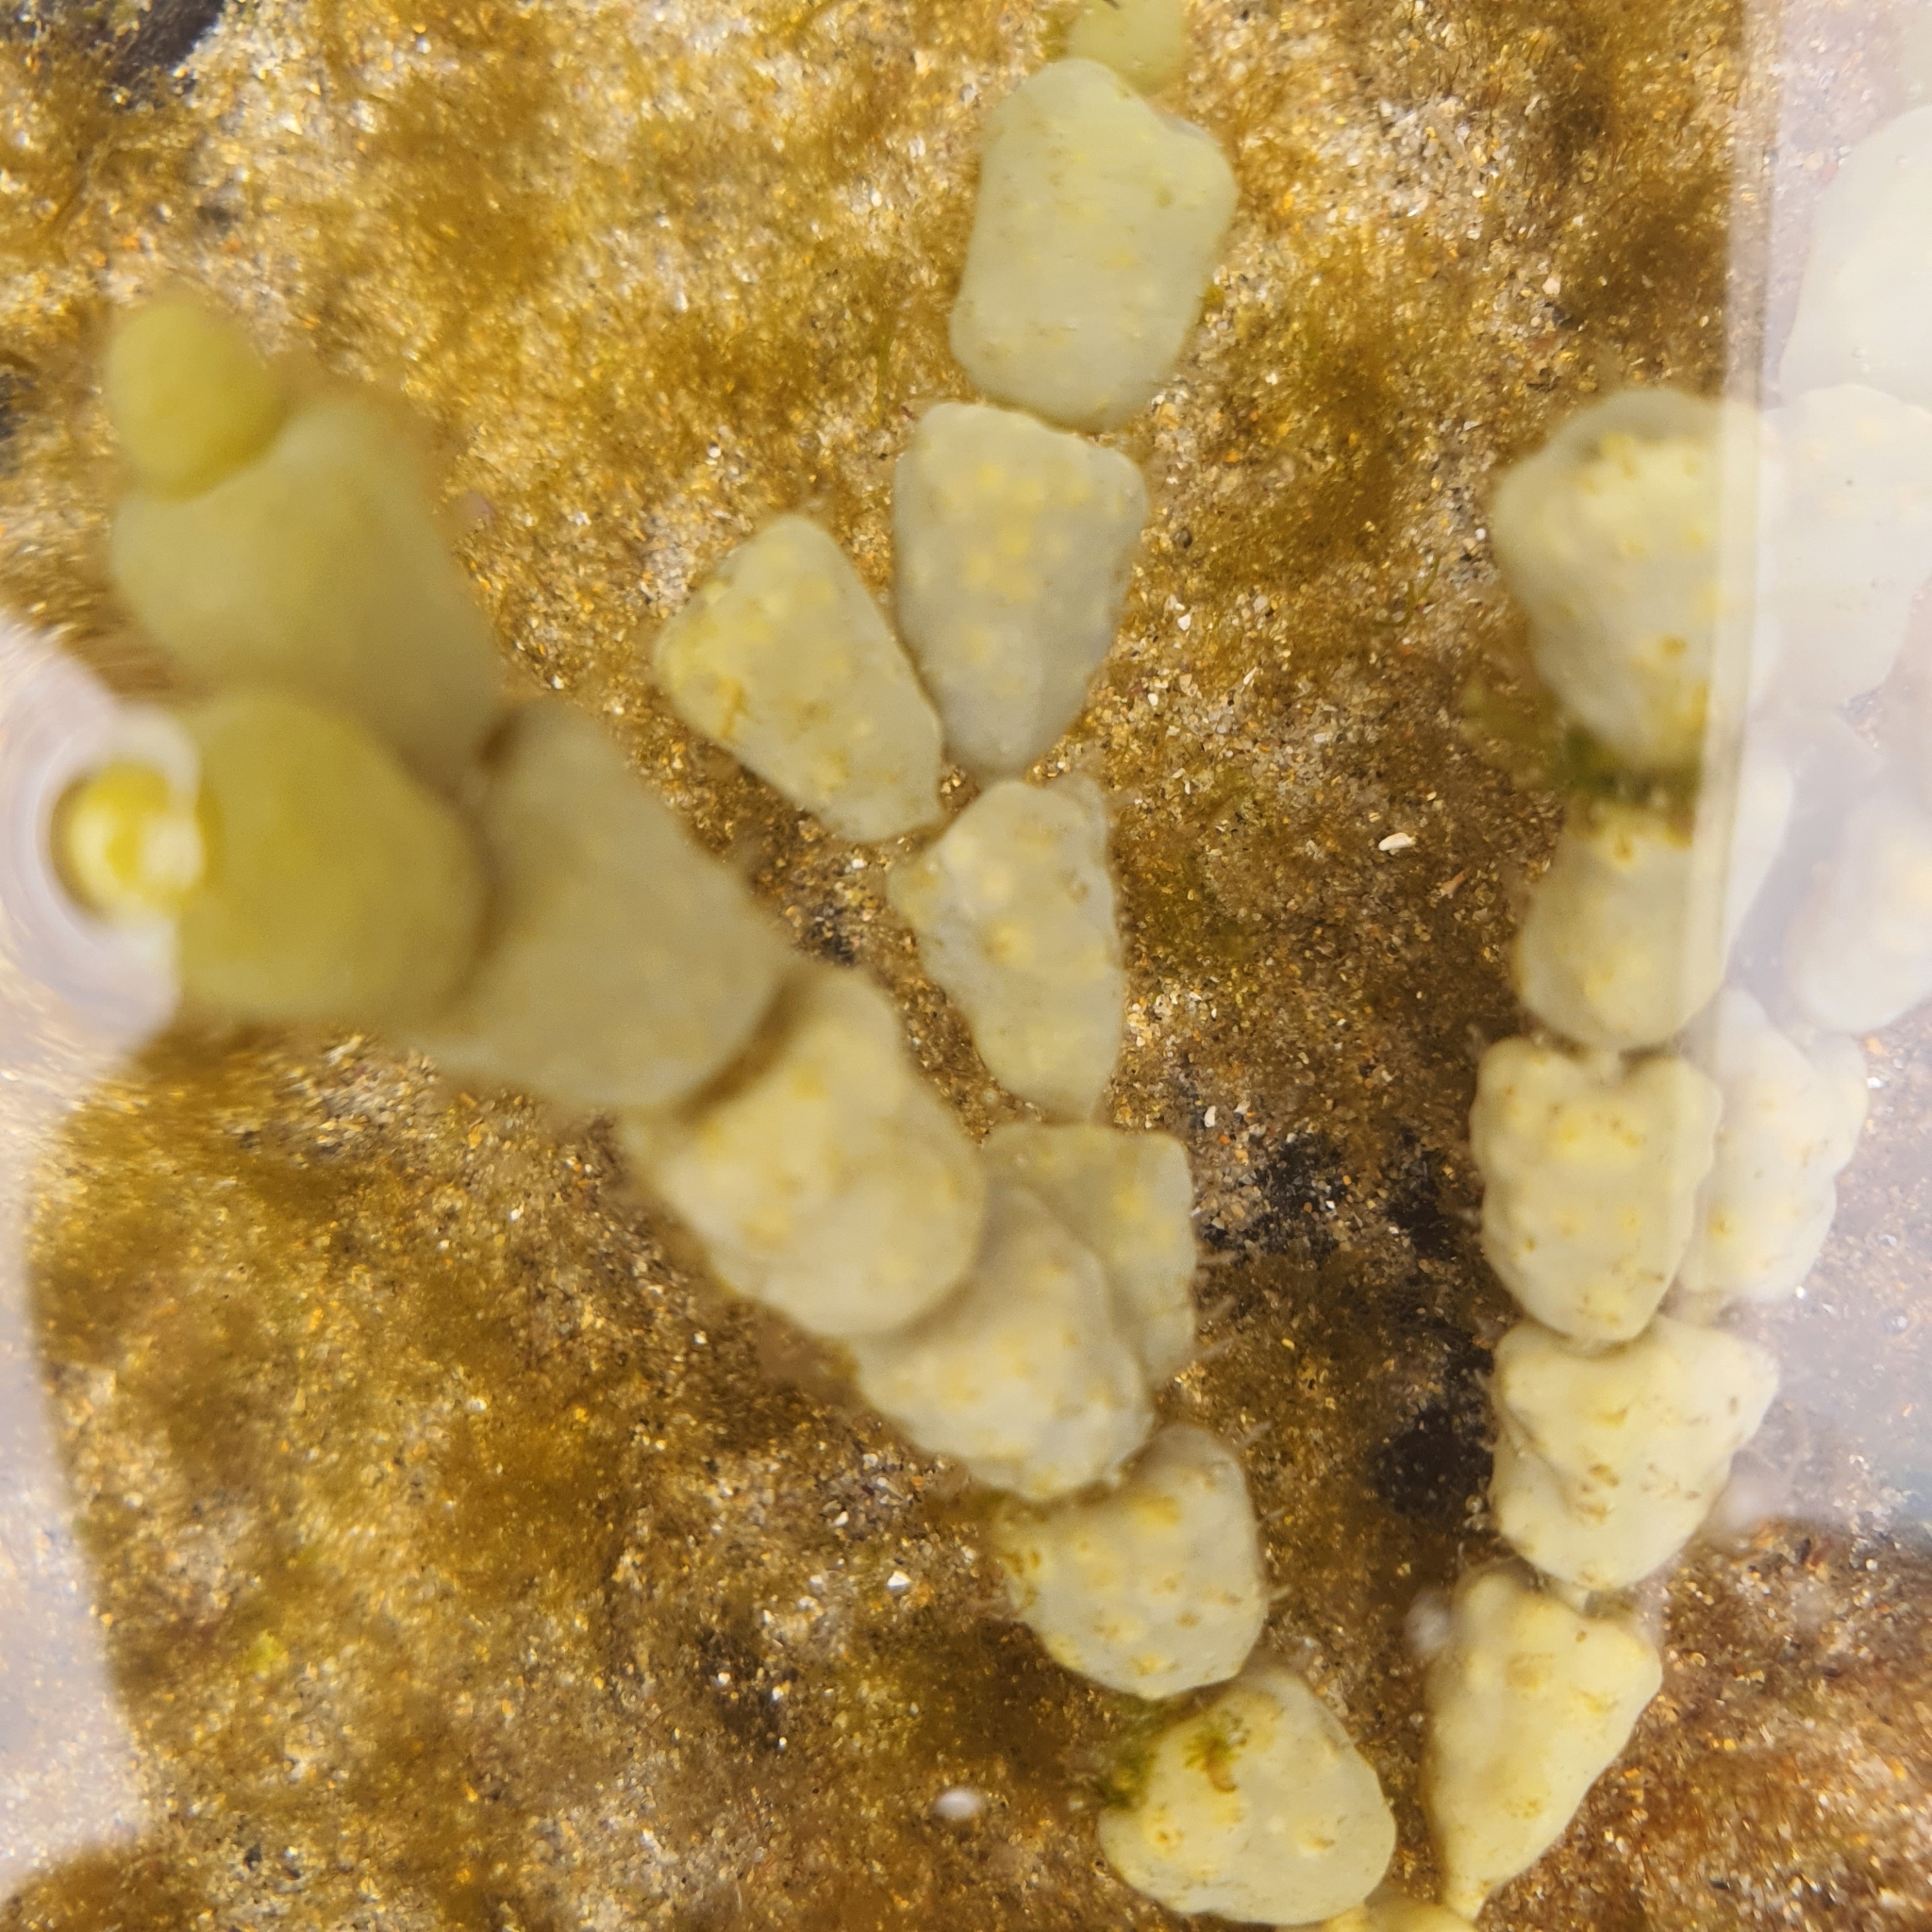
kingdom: Chromista
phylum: Ochrophyta
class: Phaeophyceae
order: Fucales
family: Hormosiraceae
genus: Hormosira
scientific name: Hormosira banksii
